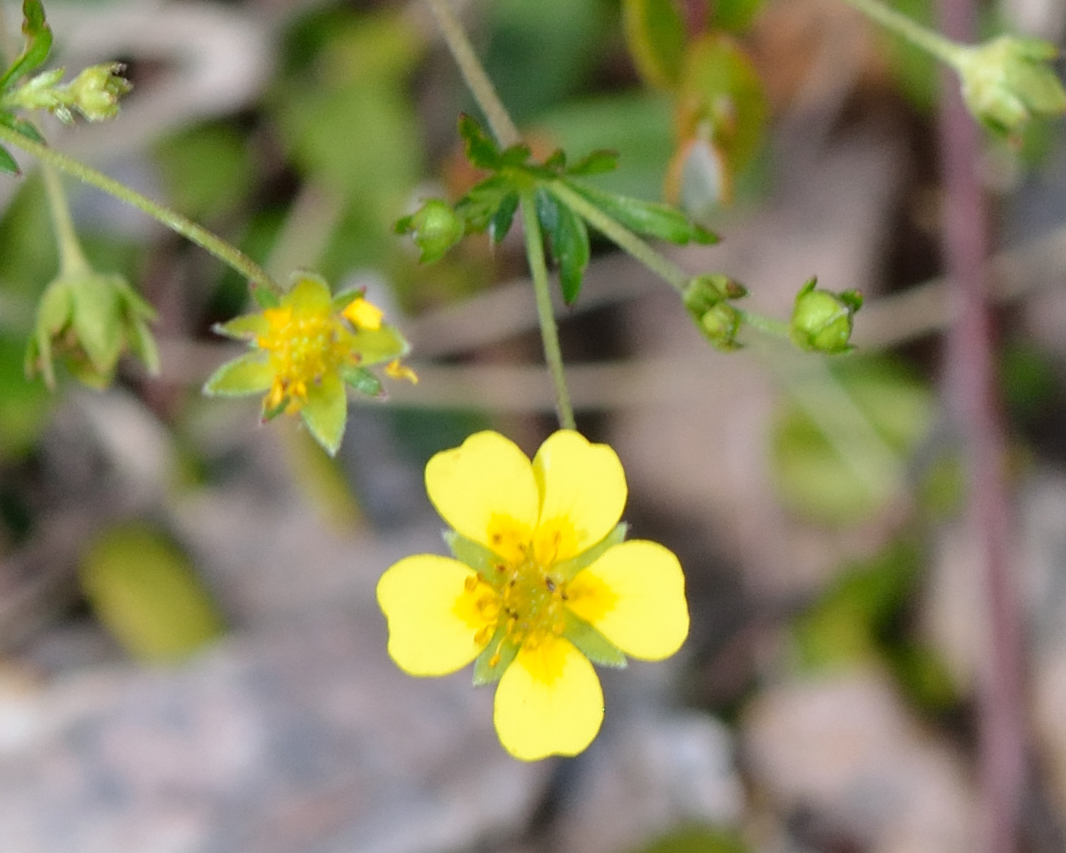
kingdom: Plantae
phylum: Tracheophyta
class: Magnoliopsida
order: Rosales
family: Rosaceae
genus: Potentilla
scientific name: Potentilla erecta
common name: Tormentil
